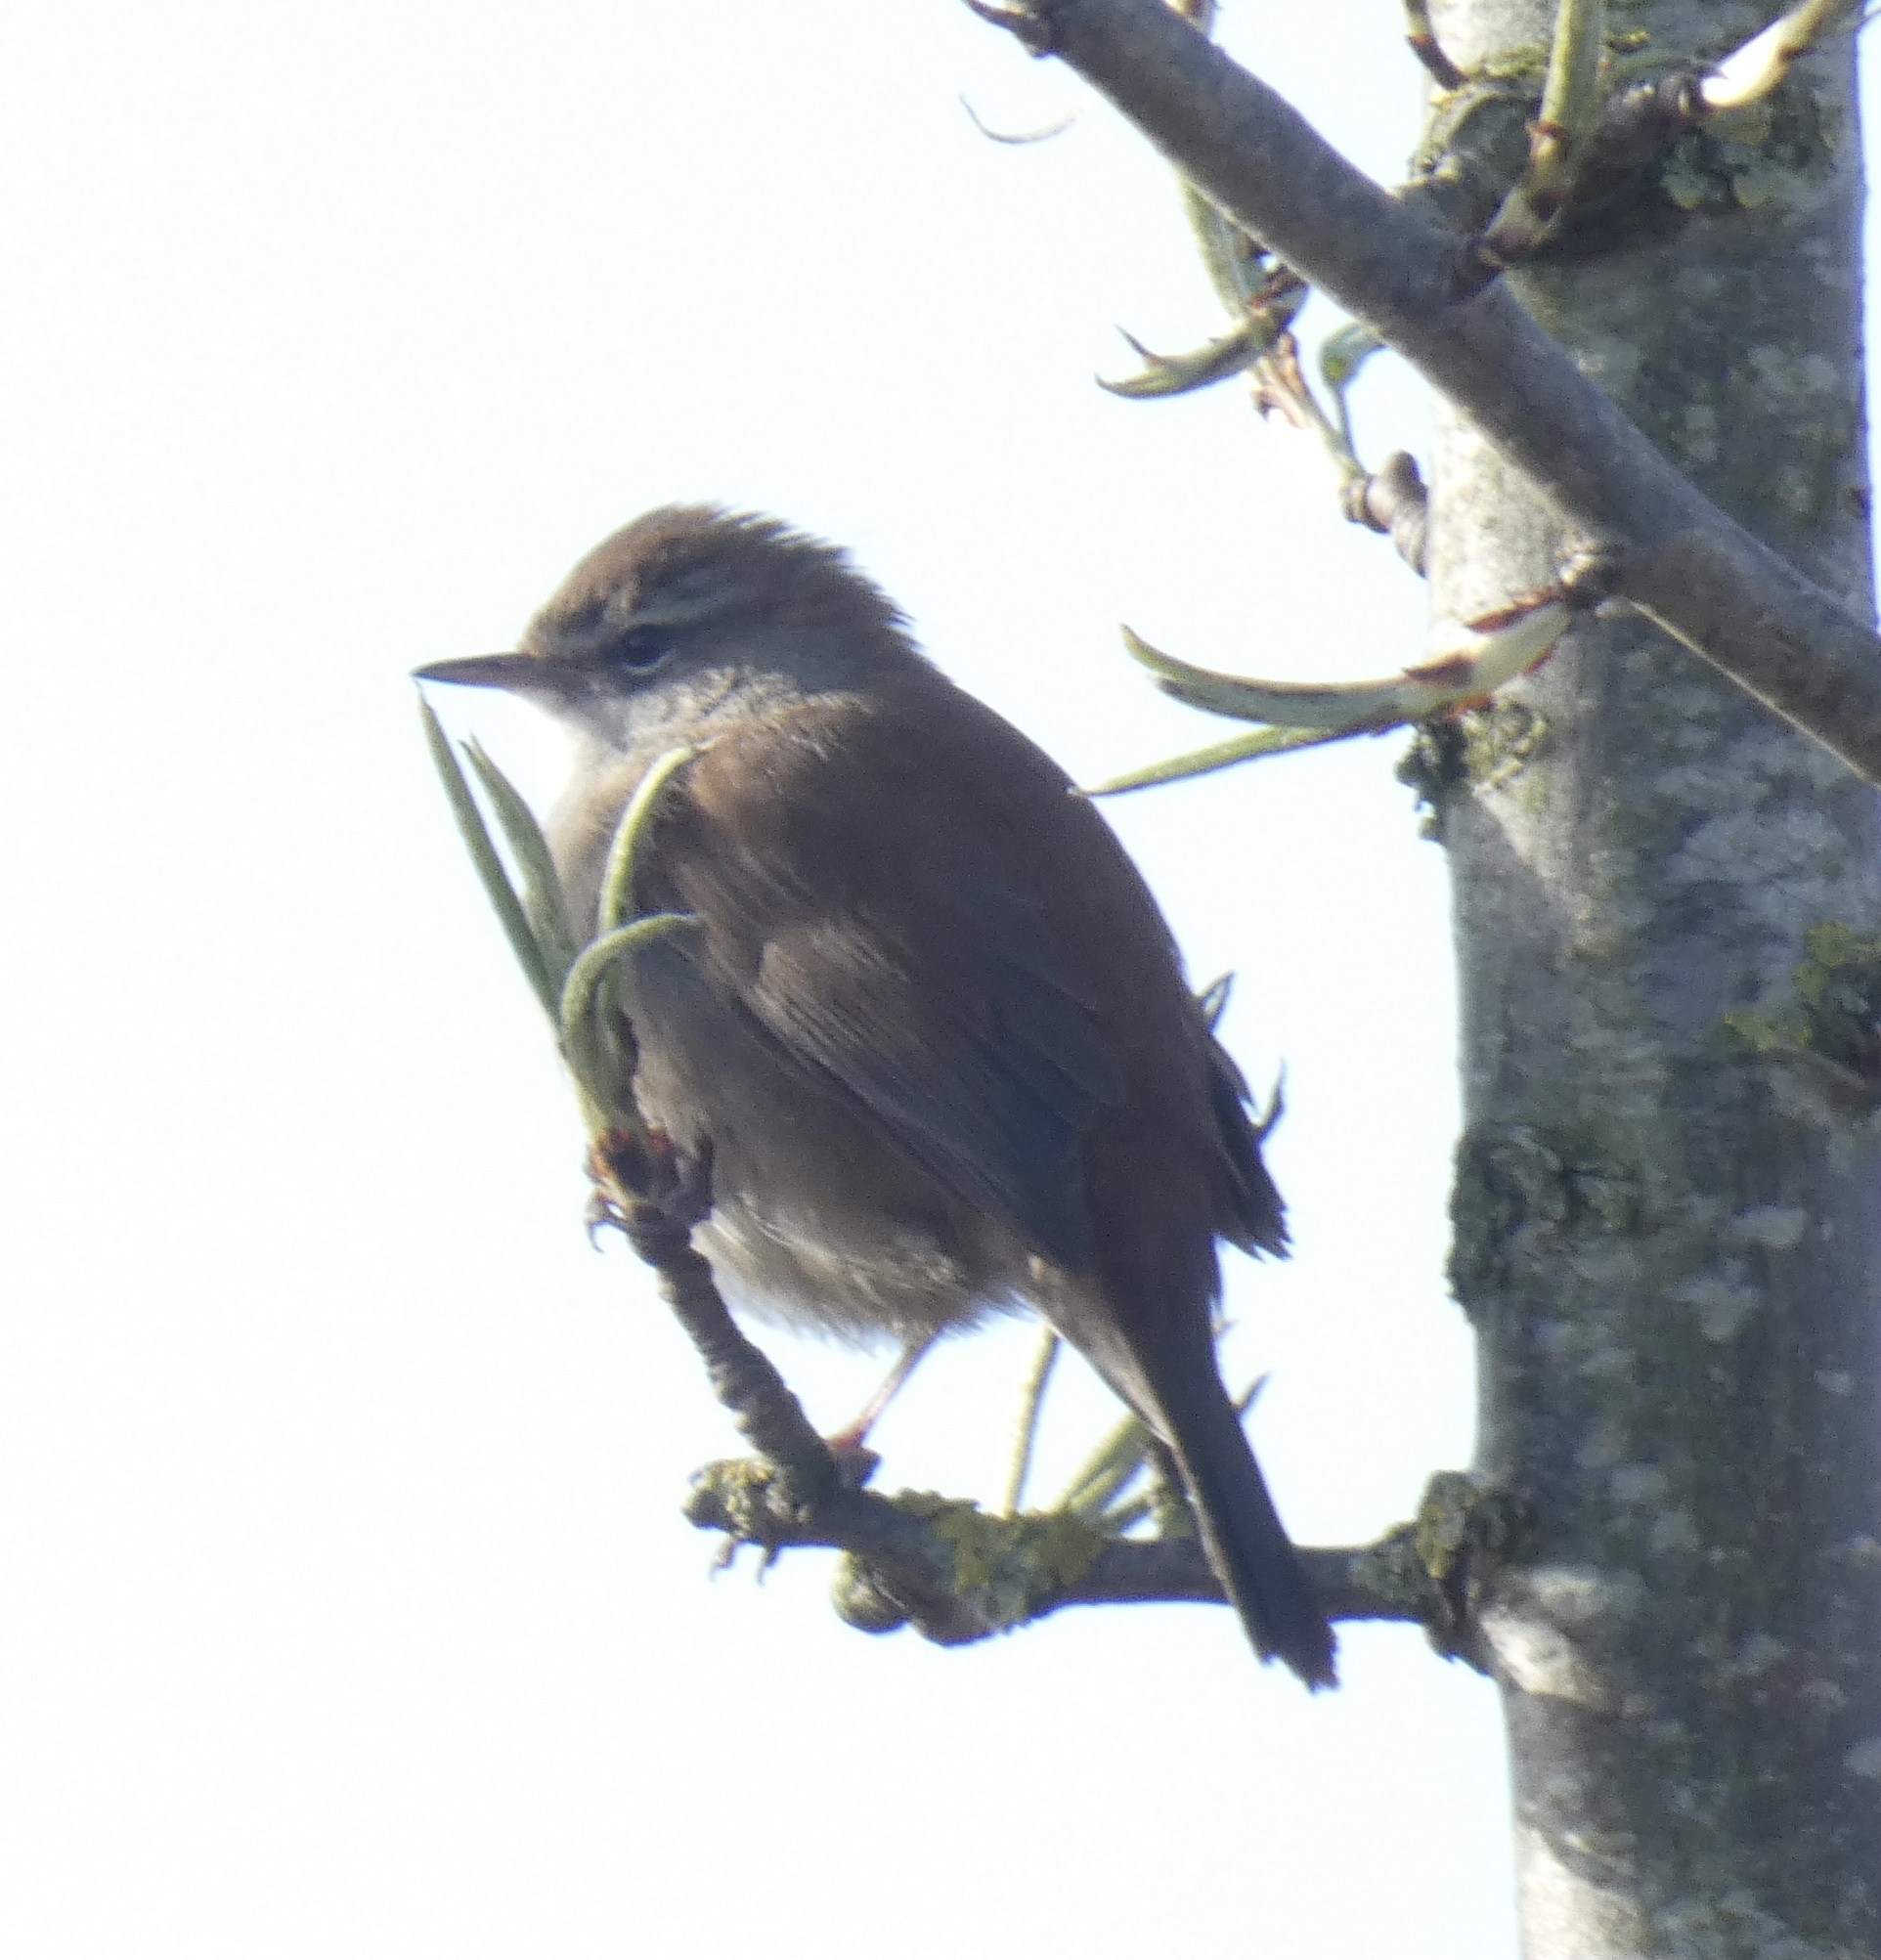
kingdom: Animalia
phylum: Chordata
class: Aves
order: Passeriformes
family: Cettiidae
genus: Cettia
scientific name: Cettia cetti
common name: Cetti's warbler
